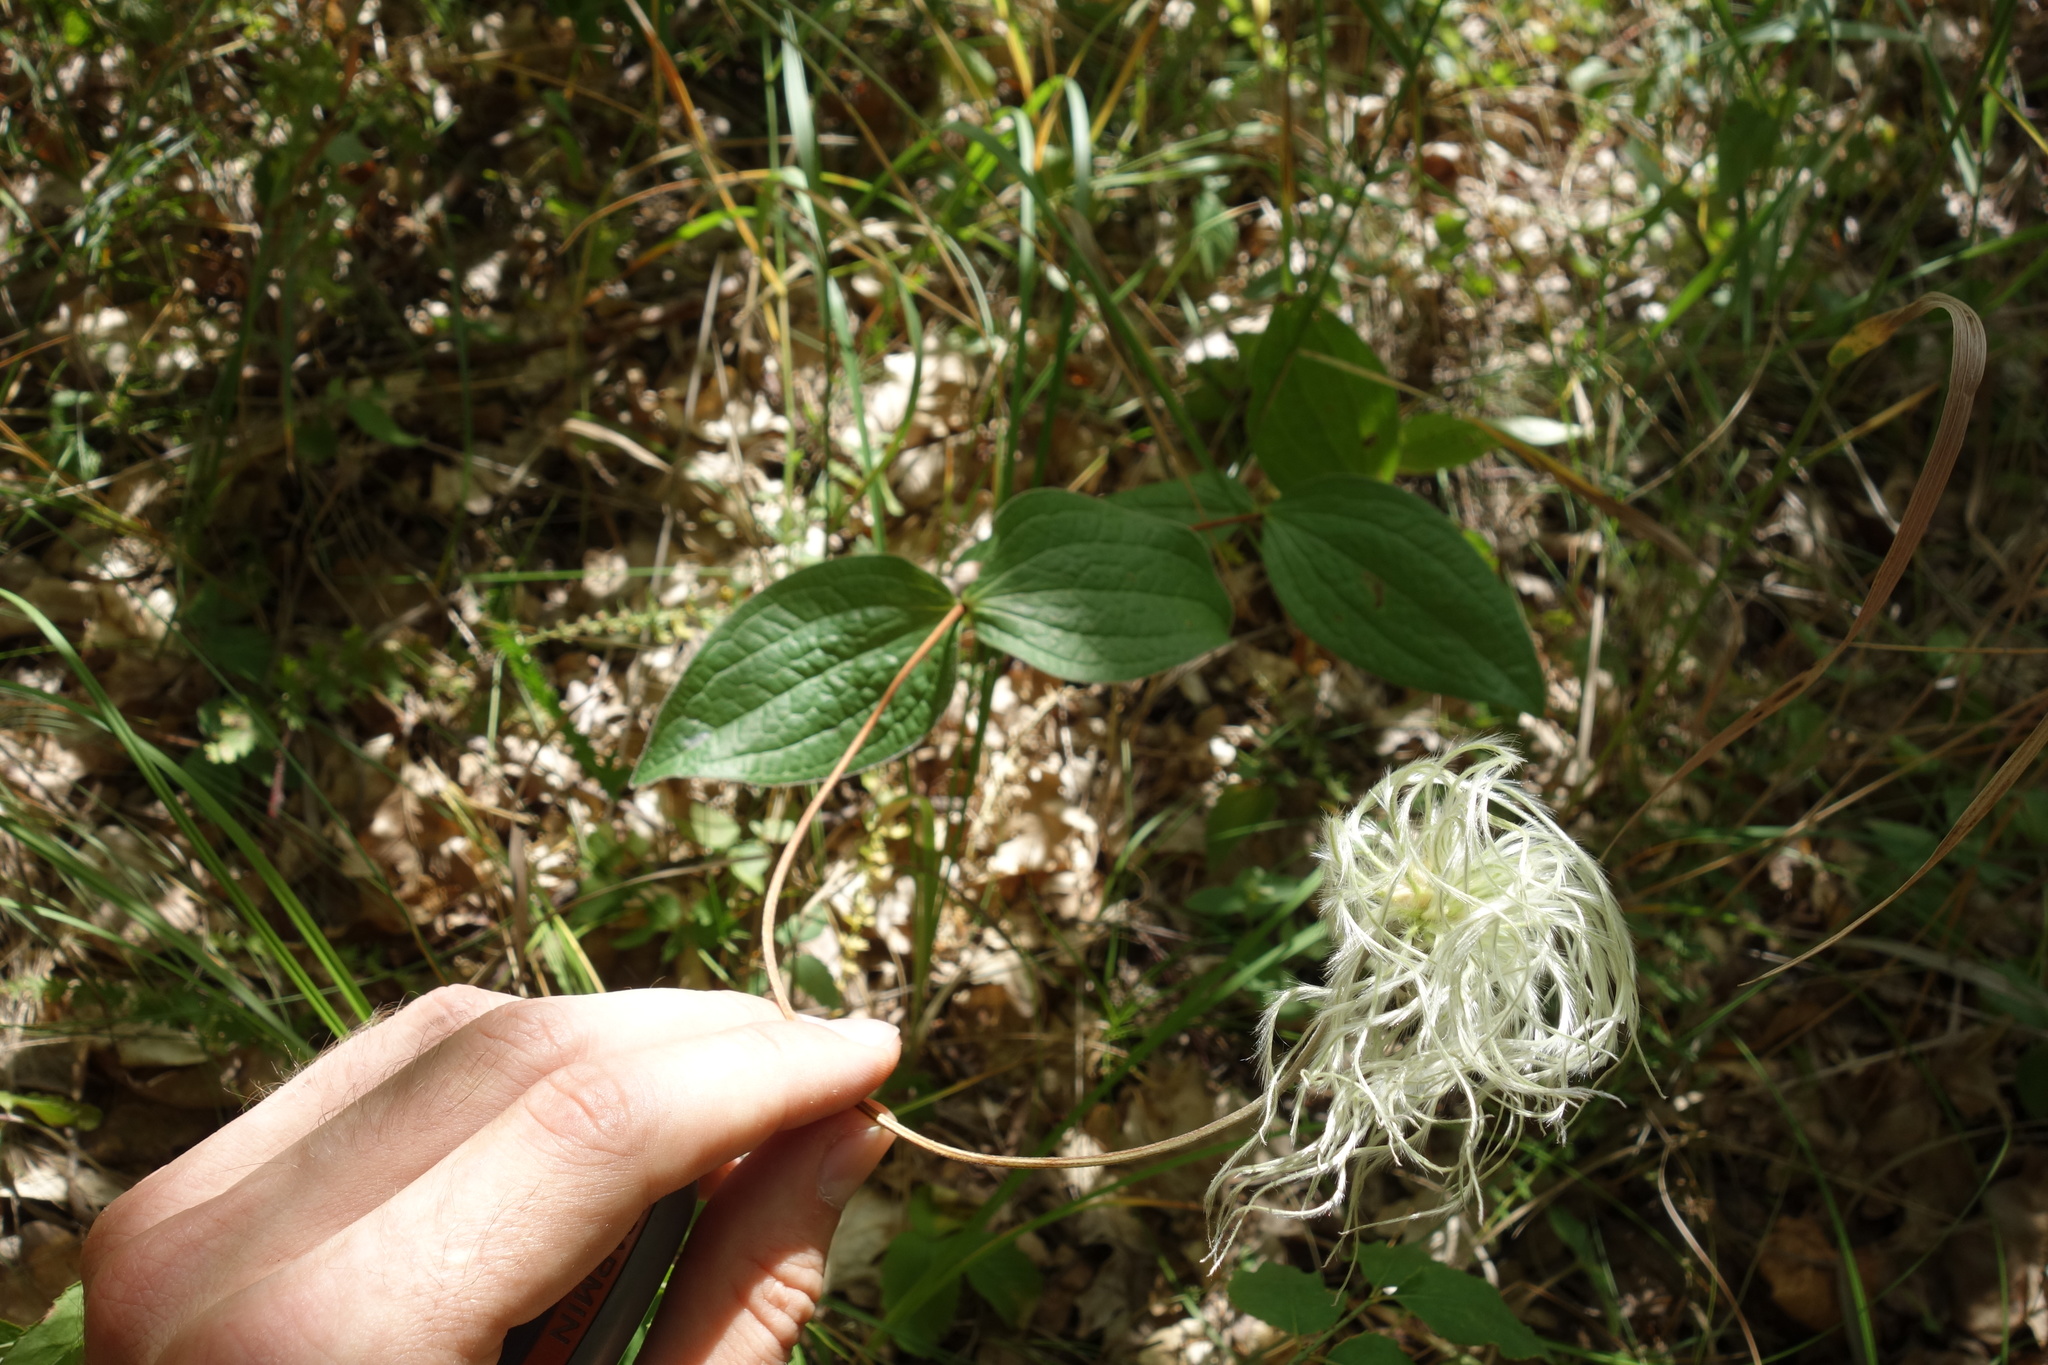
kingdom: Plantae
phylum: Tracheophyta
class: Magnoliopsida
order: Ranunculales
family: Ranunculaceae
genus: Clematis
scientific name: Clematis integrifolia
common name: Solitary clematis
